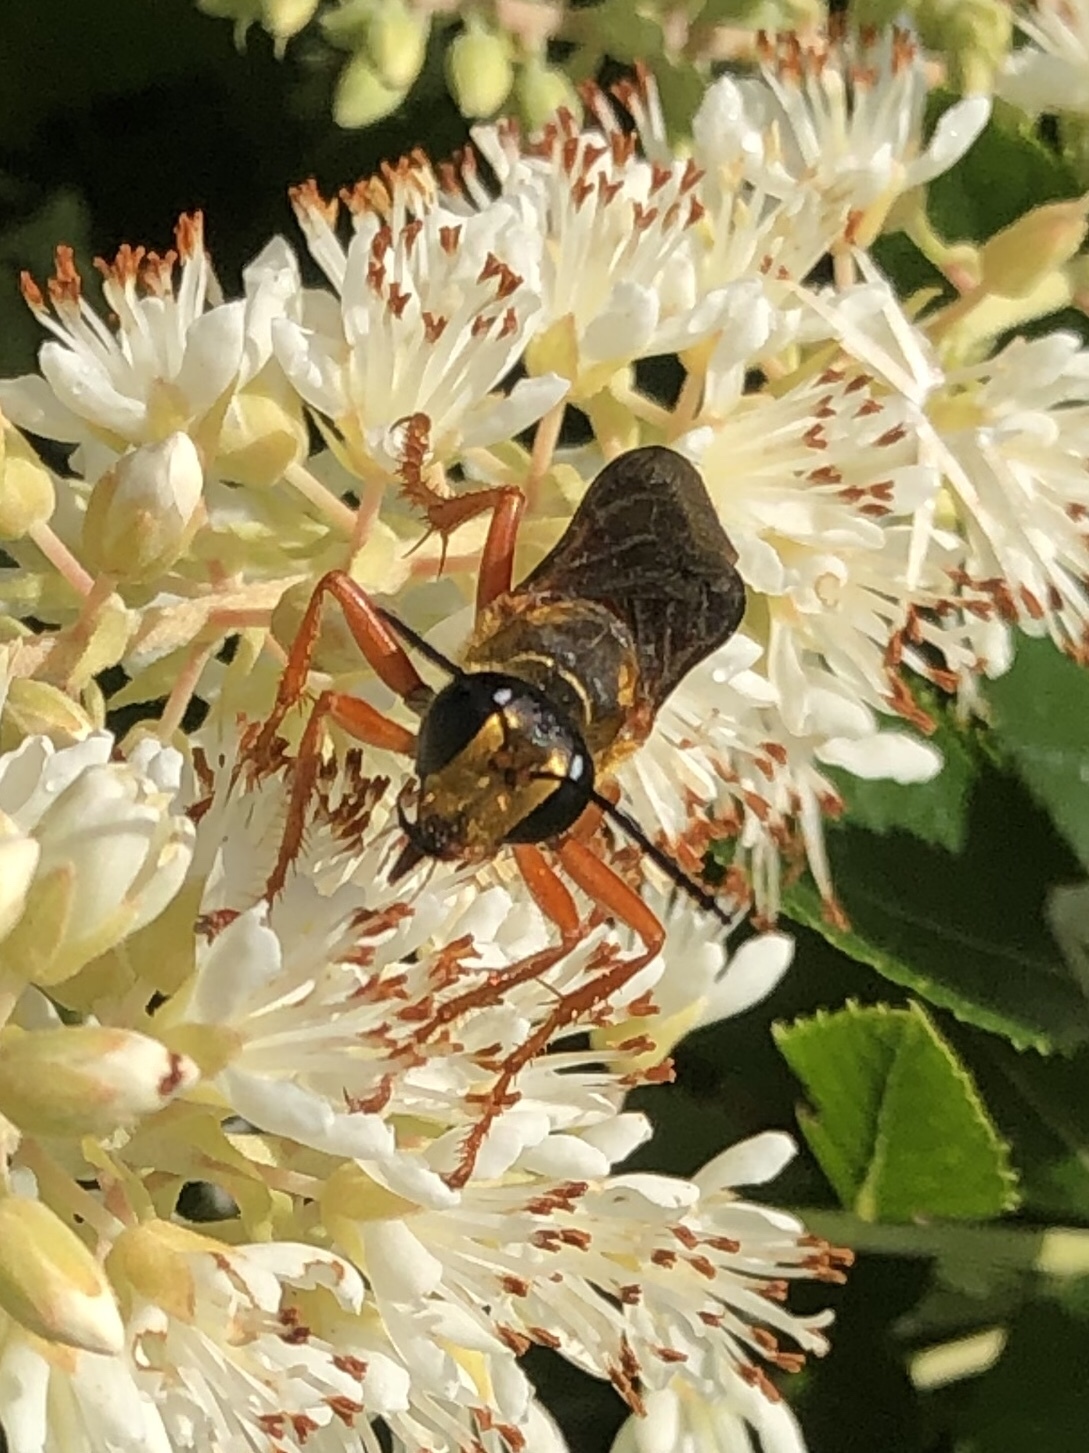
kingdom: Animalia
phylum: Arthropoda
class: Insecta
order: Hymenoptera
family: Sphecidae
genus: Sphex
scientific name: Sphex ichneumoneus
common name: Great golden digger wasp
